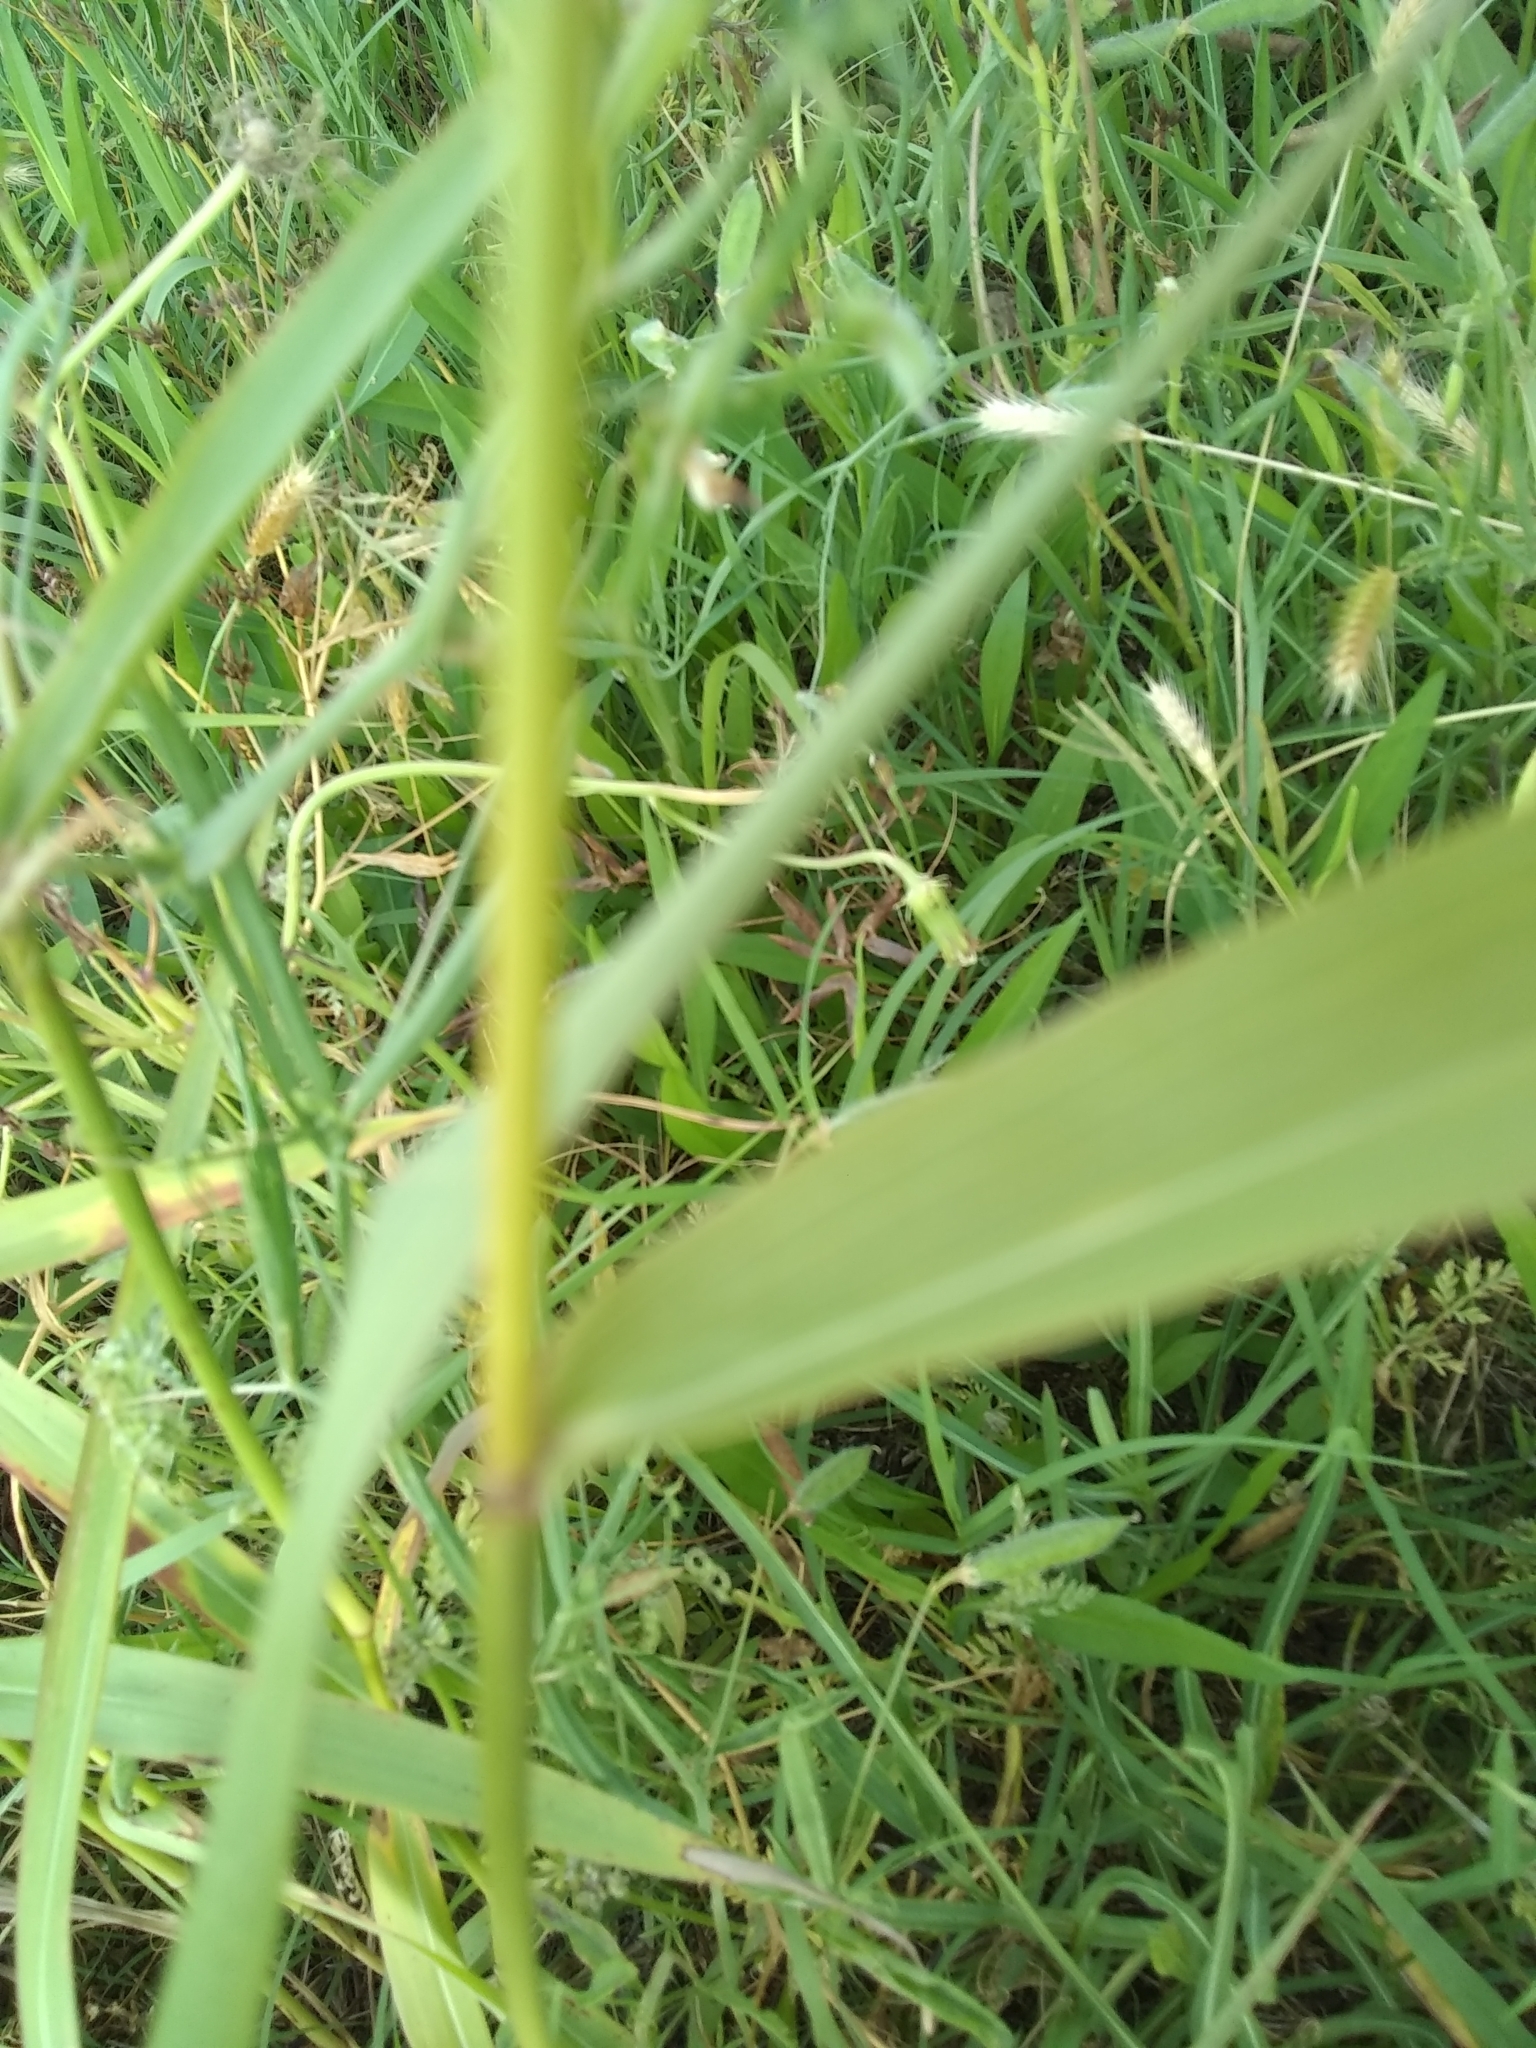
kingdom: Plantae
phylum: Tracheophyta
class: Liliopsida
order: Poales
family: Poaceae
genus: Sorghum
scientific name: Sorghum halepense
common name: Johnson-grass
